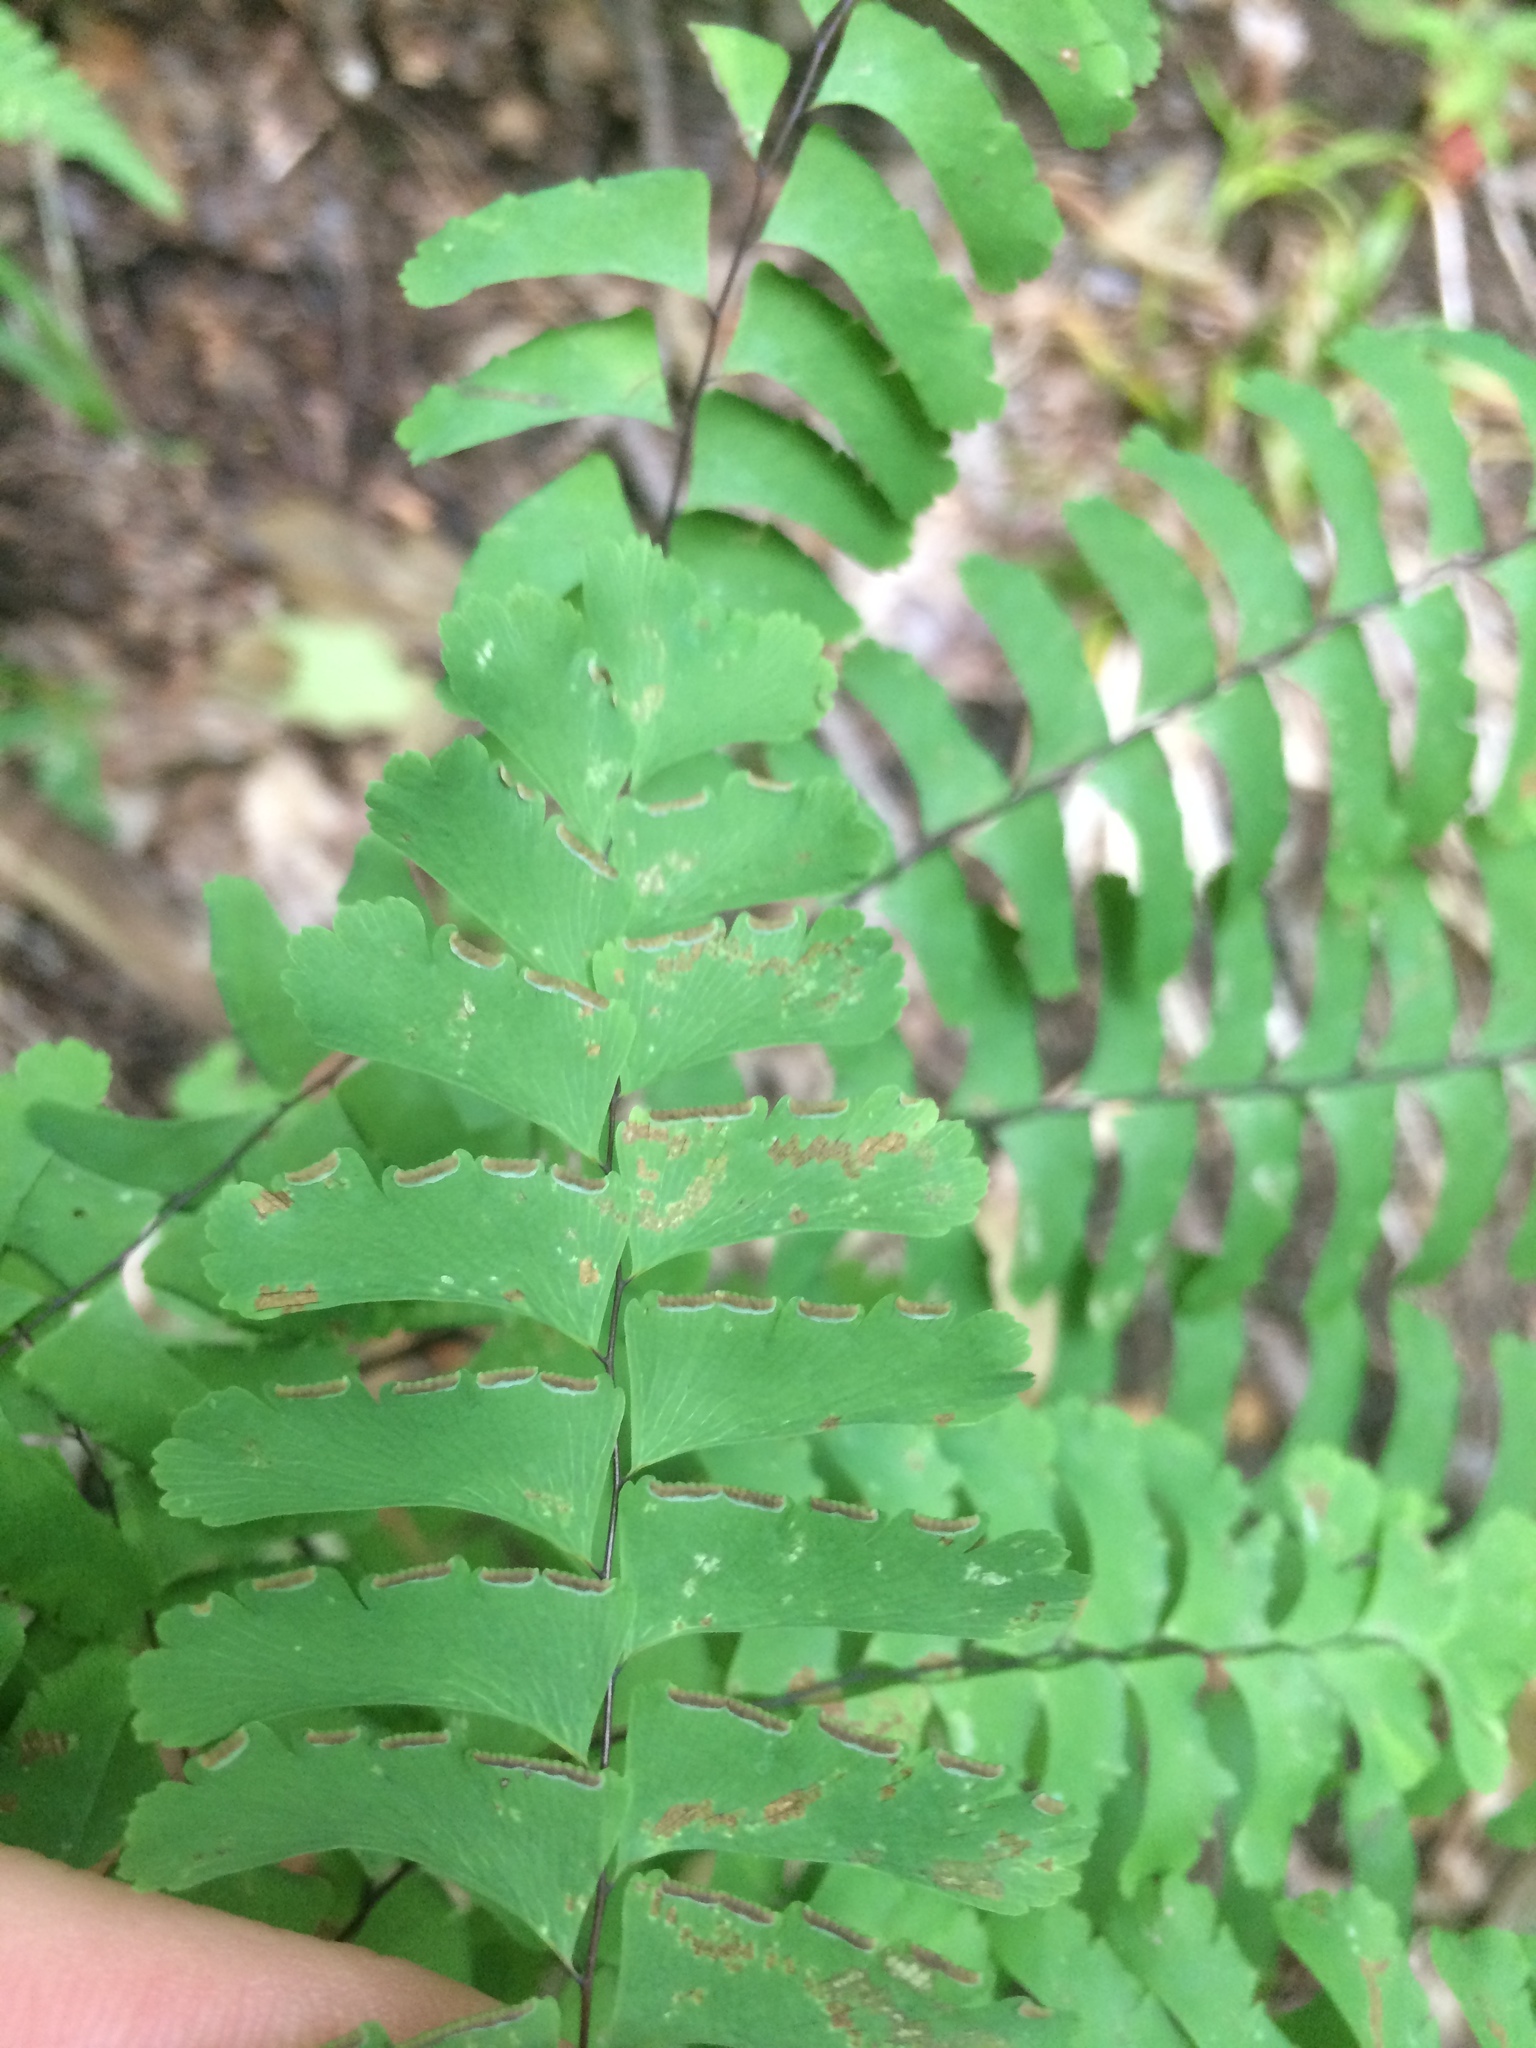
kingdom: Plantae
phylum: Tracheophyta
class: Polypodiopsida
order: Polypodiales
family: Pteridaceae
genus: Adiantum
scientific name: Adiantum pedatum
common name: Five-finger fern
